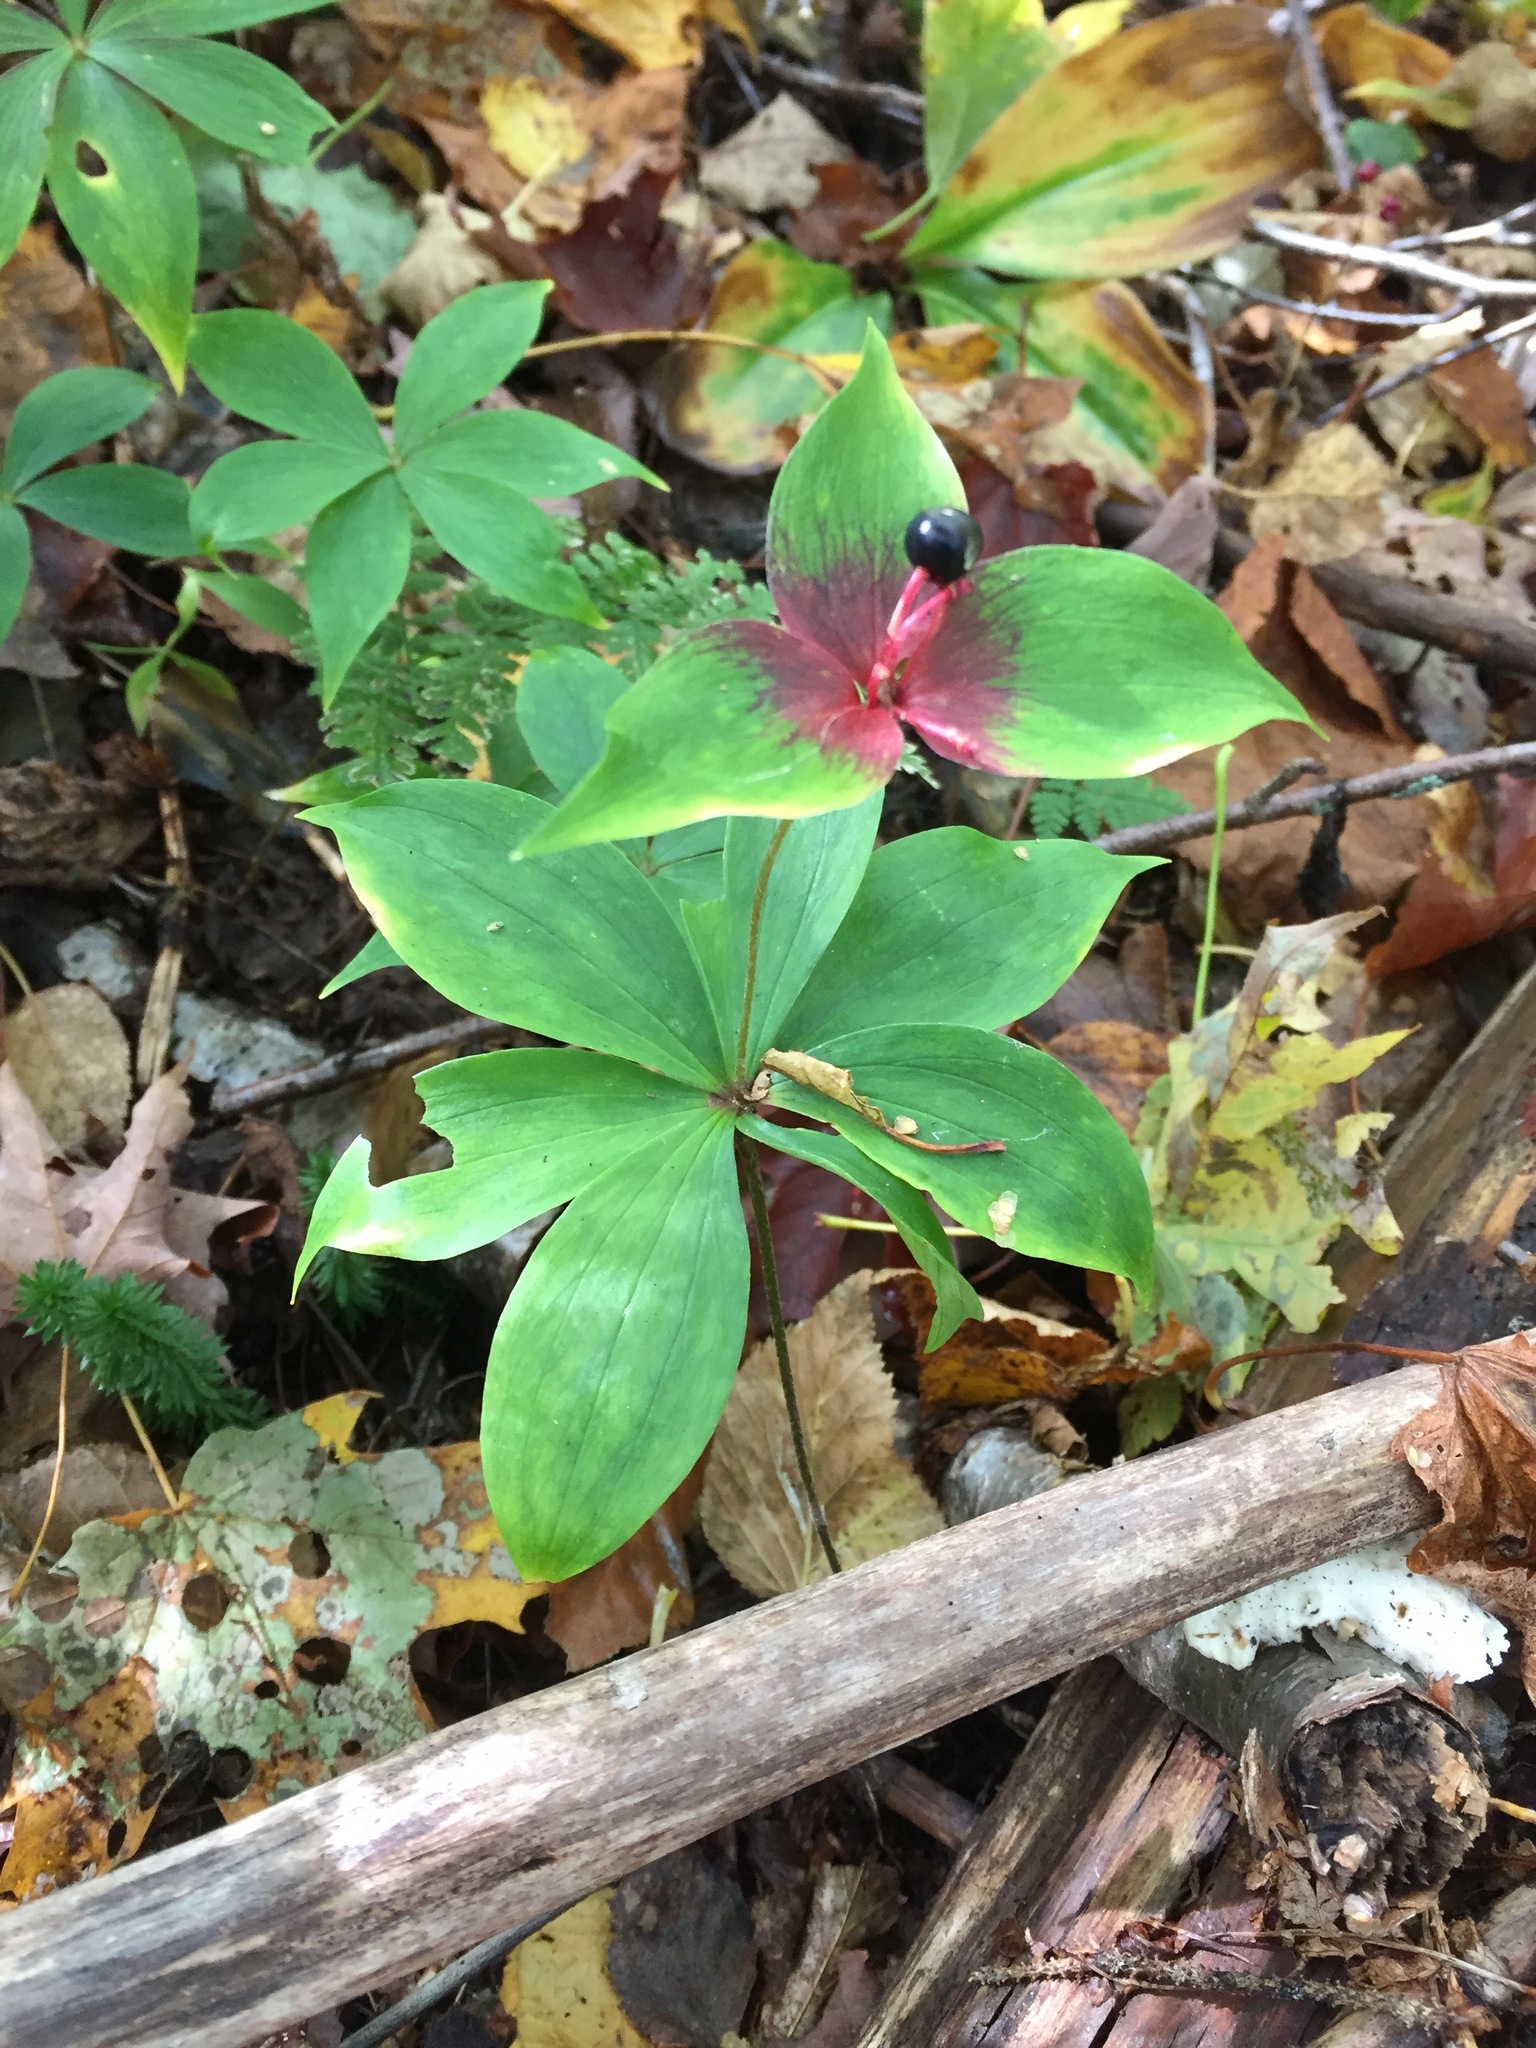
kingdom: Plantae
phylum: Tracheophyta
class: Liliopsida
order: Liliales
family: Liliaceae
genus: Medeola
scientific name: Medeola virginiana
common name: Indian cucumber-root
